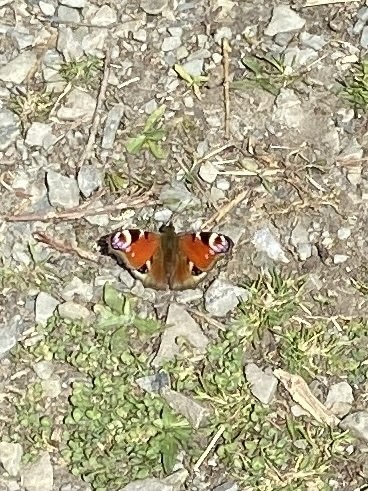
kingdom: Animalia
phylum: Arthropoda
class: Insecta
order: Lepidoptera
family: Nymphalidae
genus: Aglais
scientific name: Aglais io
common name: Peacock
